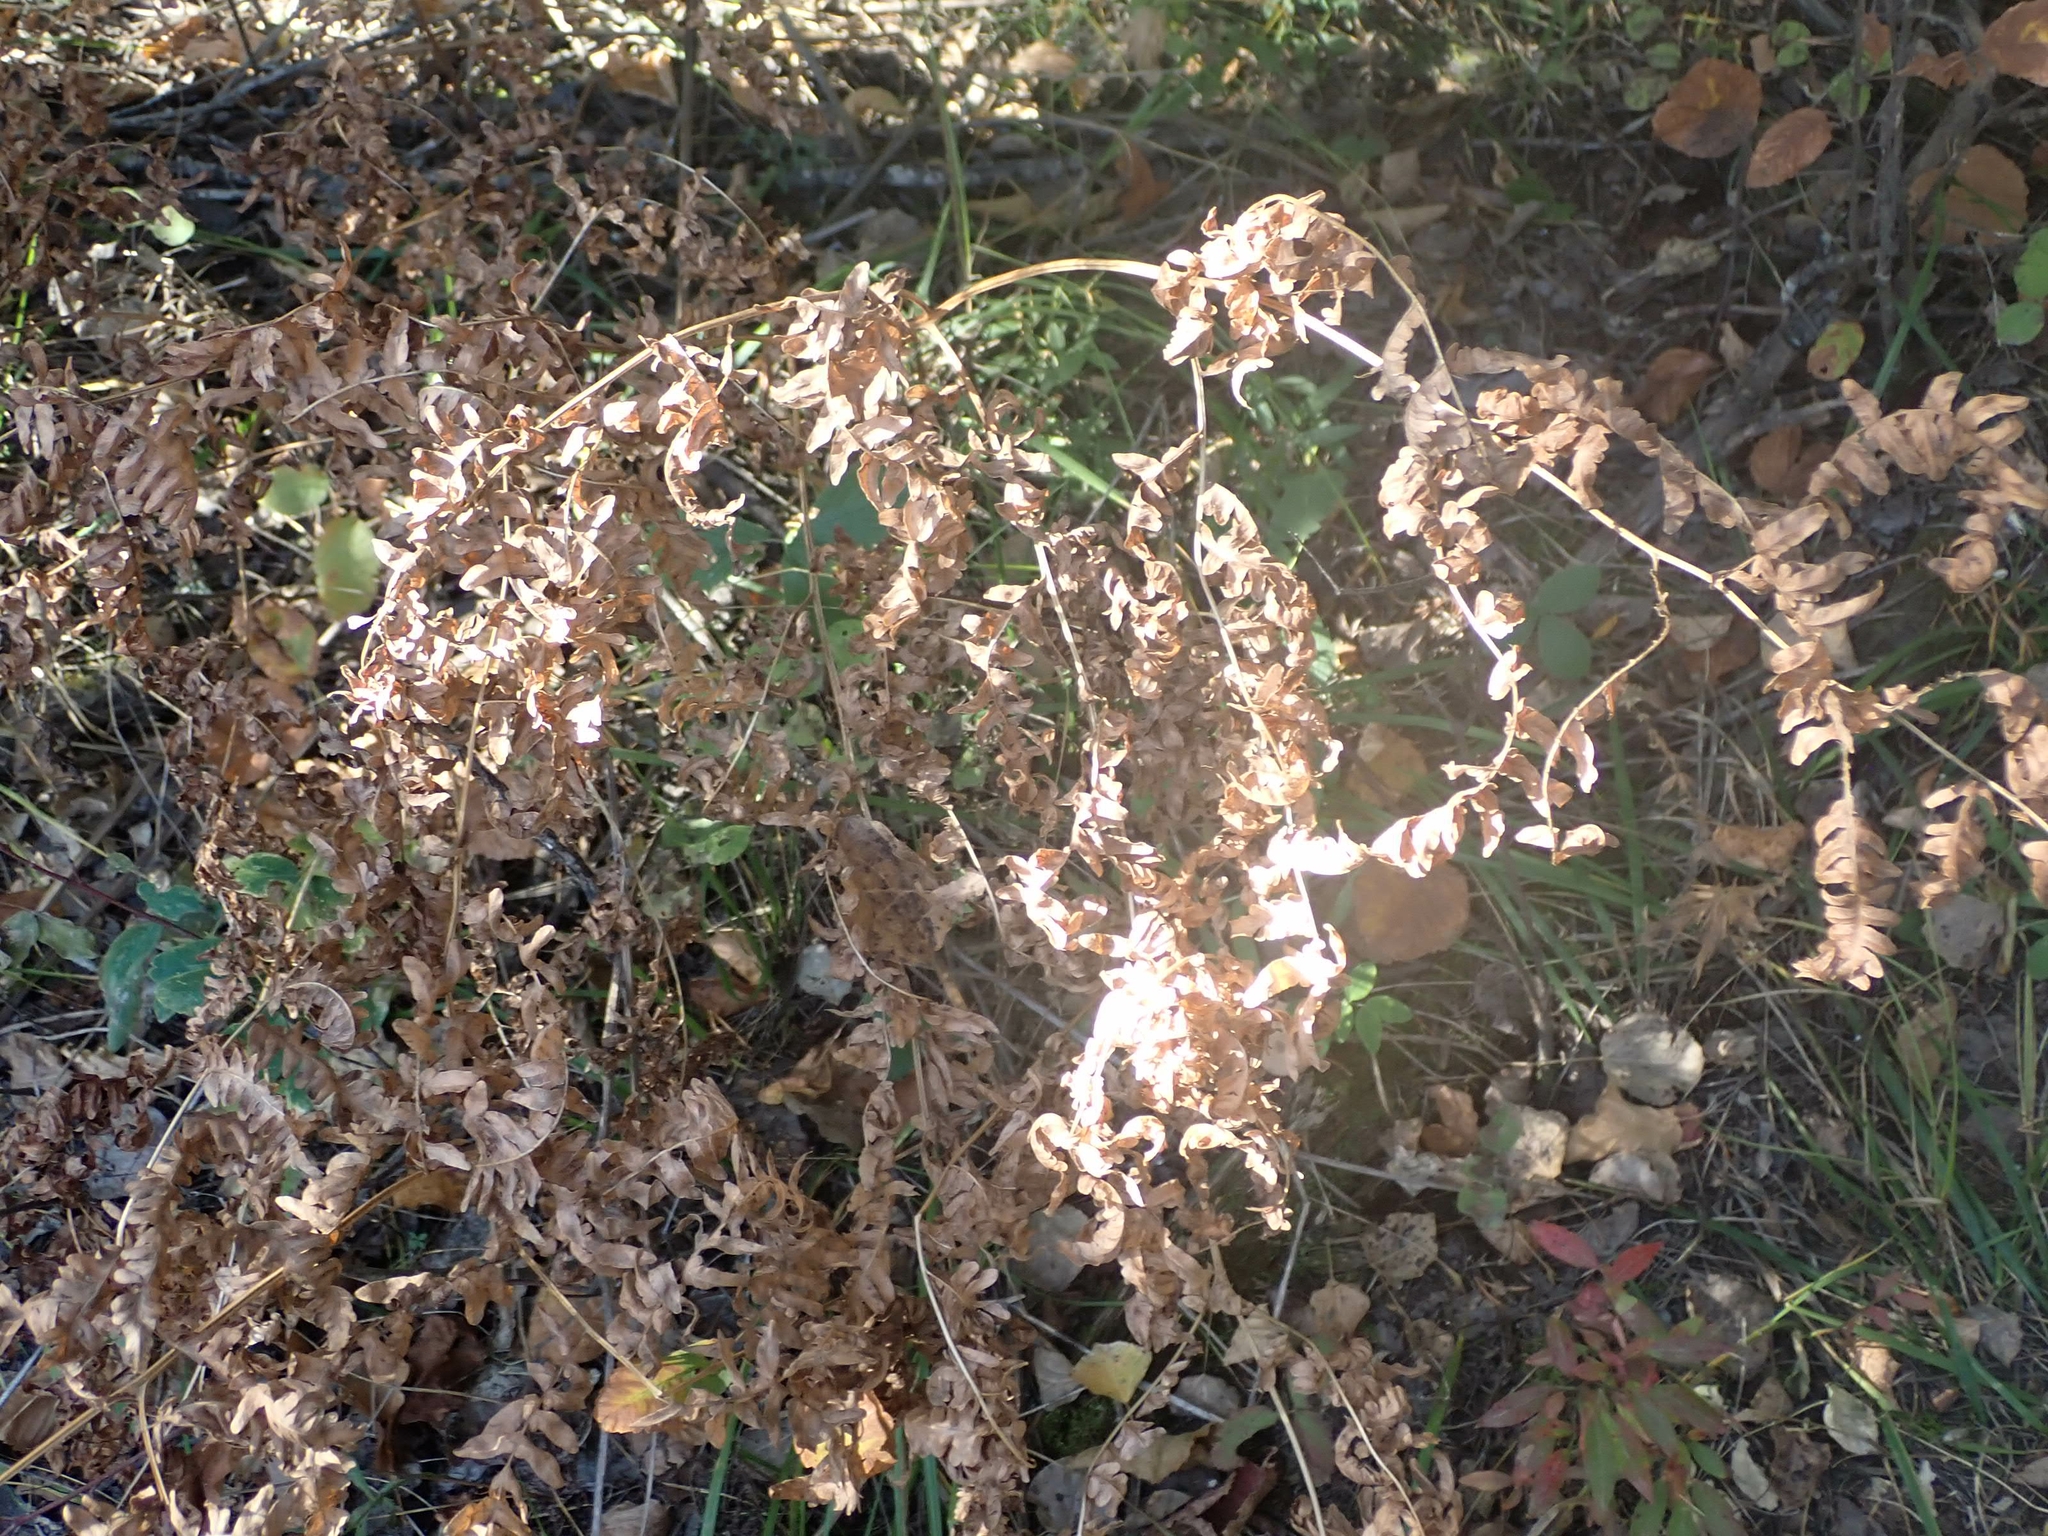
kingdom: Plantae
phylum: Tracheophyta
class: Polypodiopsida
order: Polypodiales
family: Dennstaedtiaceae
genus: Pteridium
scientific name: Pteridium aquilinum
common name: Bracken
